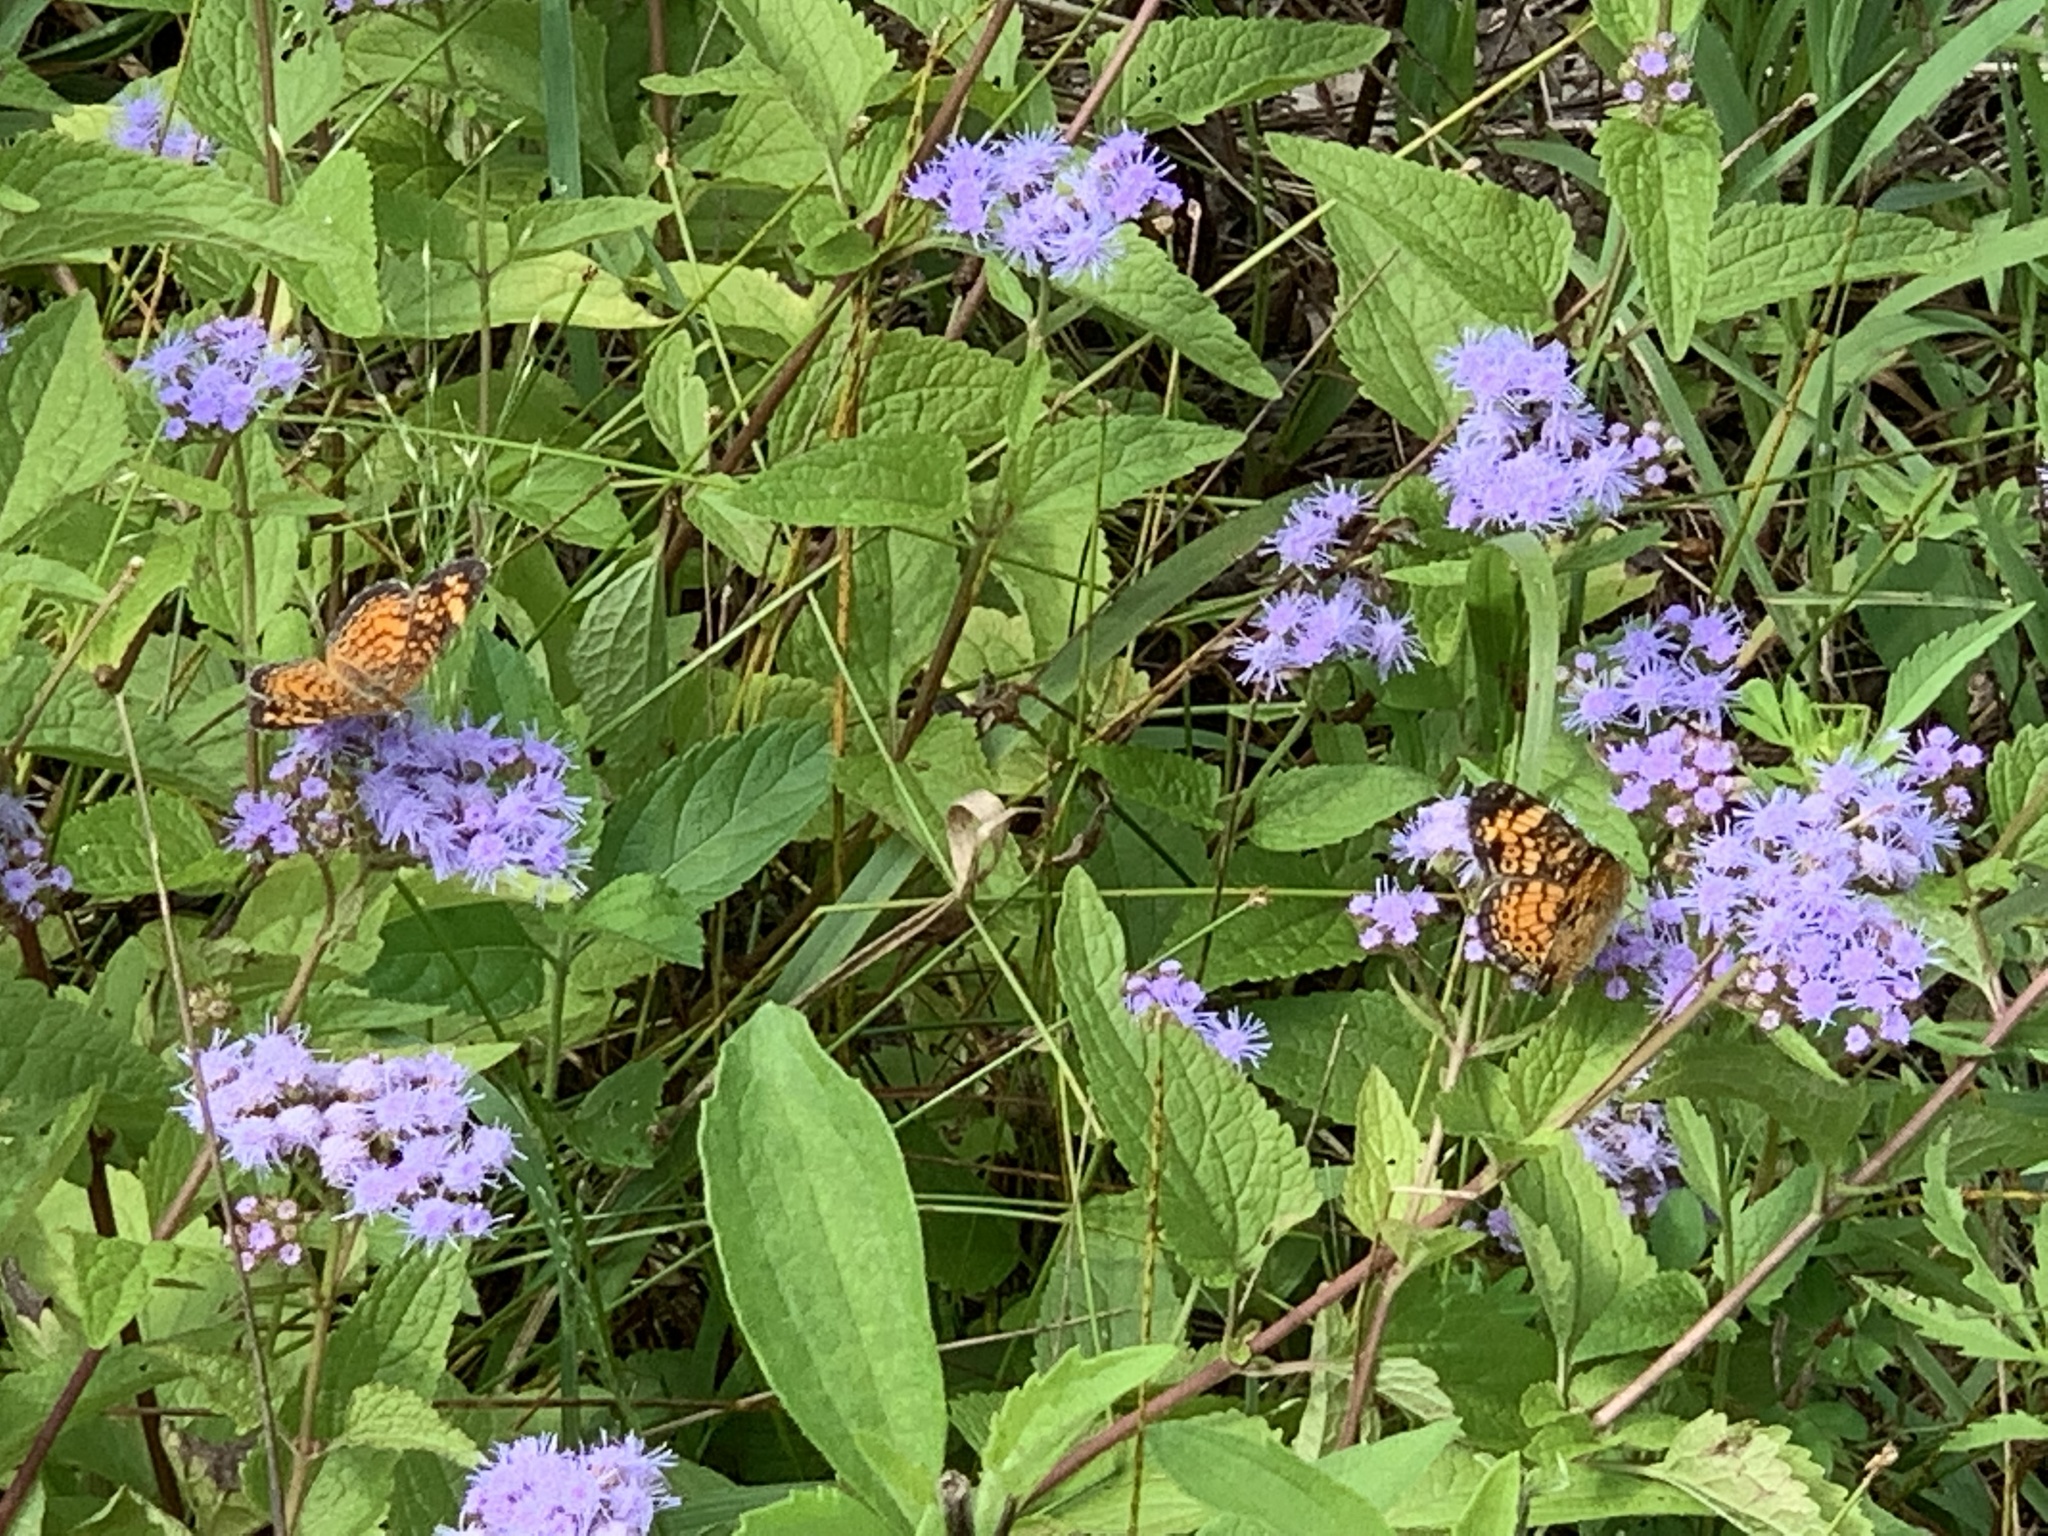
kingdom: Animalia
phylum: Arthropoda
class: Insecta
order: Lepidoptera
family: Nymphalidae
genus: Phyciodes
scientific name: Phyciodes tharos
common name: Pearl crescent
